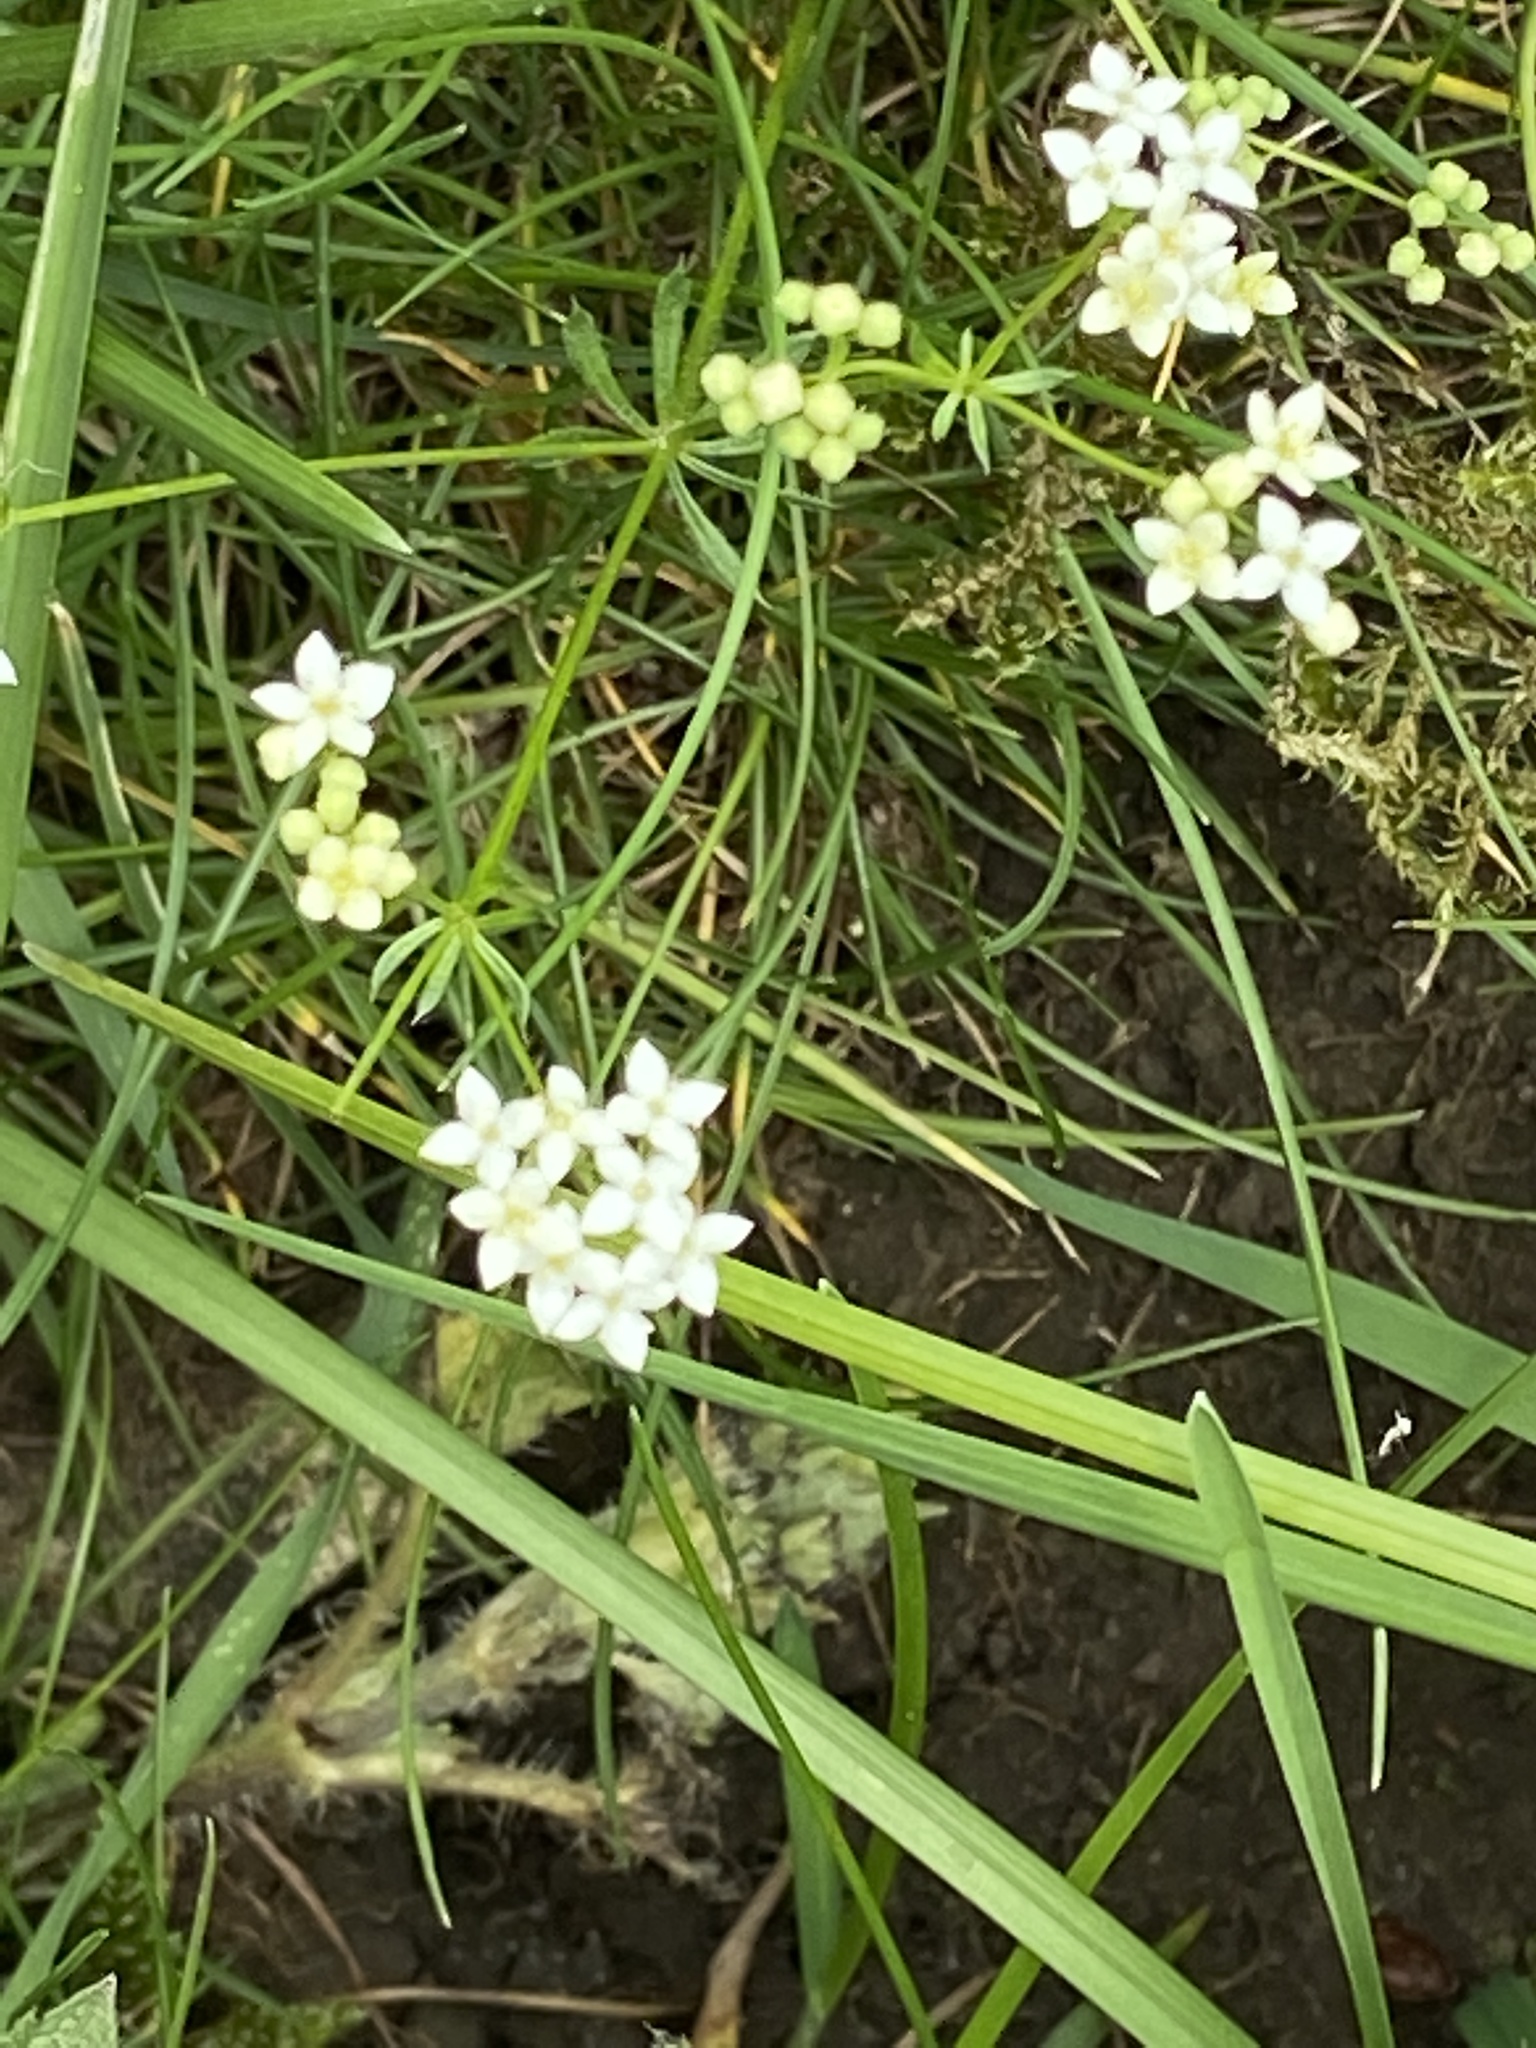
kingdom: Plantae
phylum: Tracheophyta
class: Magnoliopsida
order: Gentianales
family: Rubiaceae
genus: Galium
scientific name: Galium saxatile
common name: Heath bedstraw
